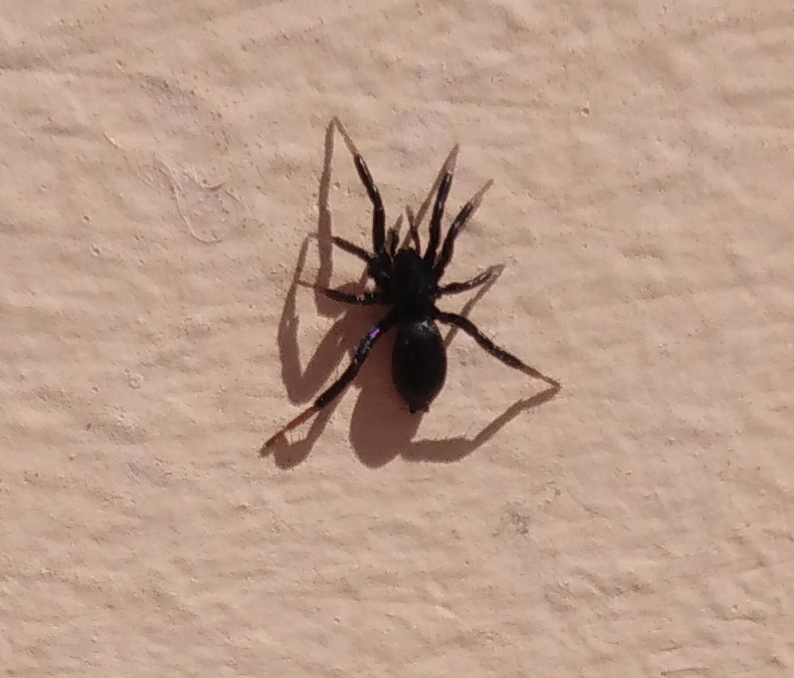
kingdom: Animalia
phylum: Arthropoda
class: Arachnida
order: Araneae
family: Gnaphosidae
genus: Drassyllus
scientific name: Drassyllus
